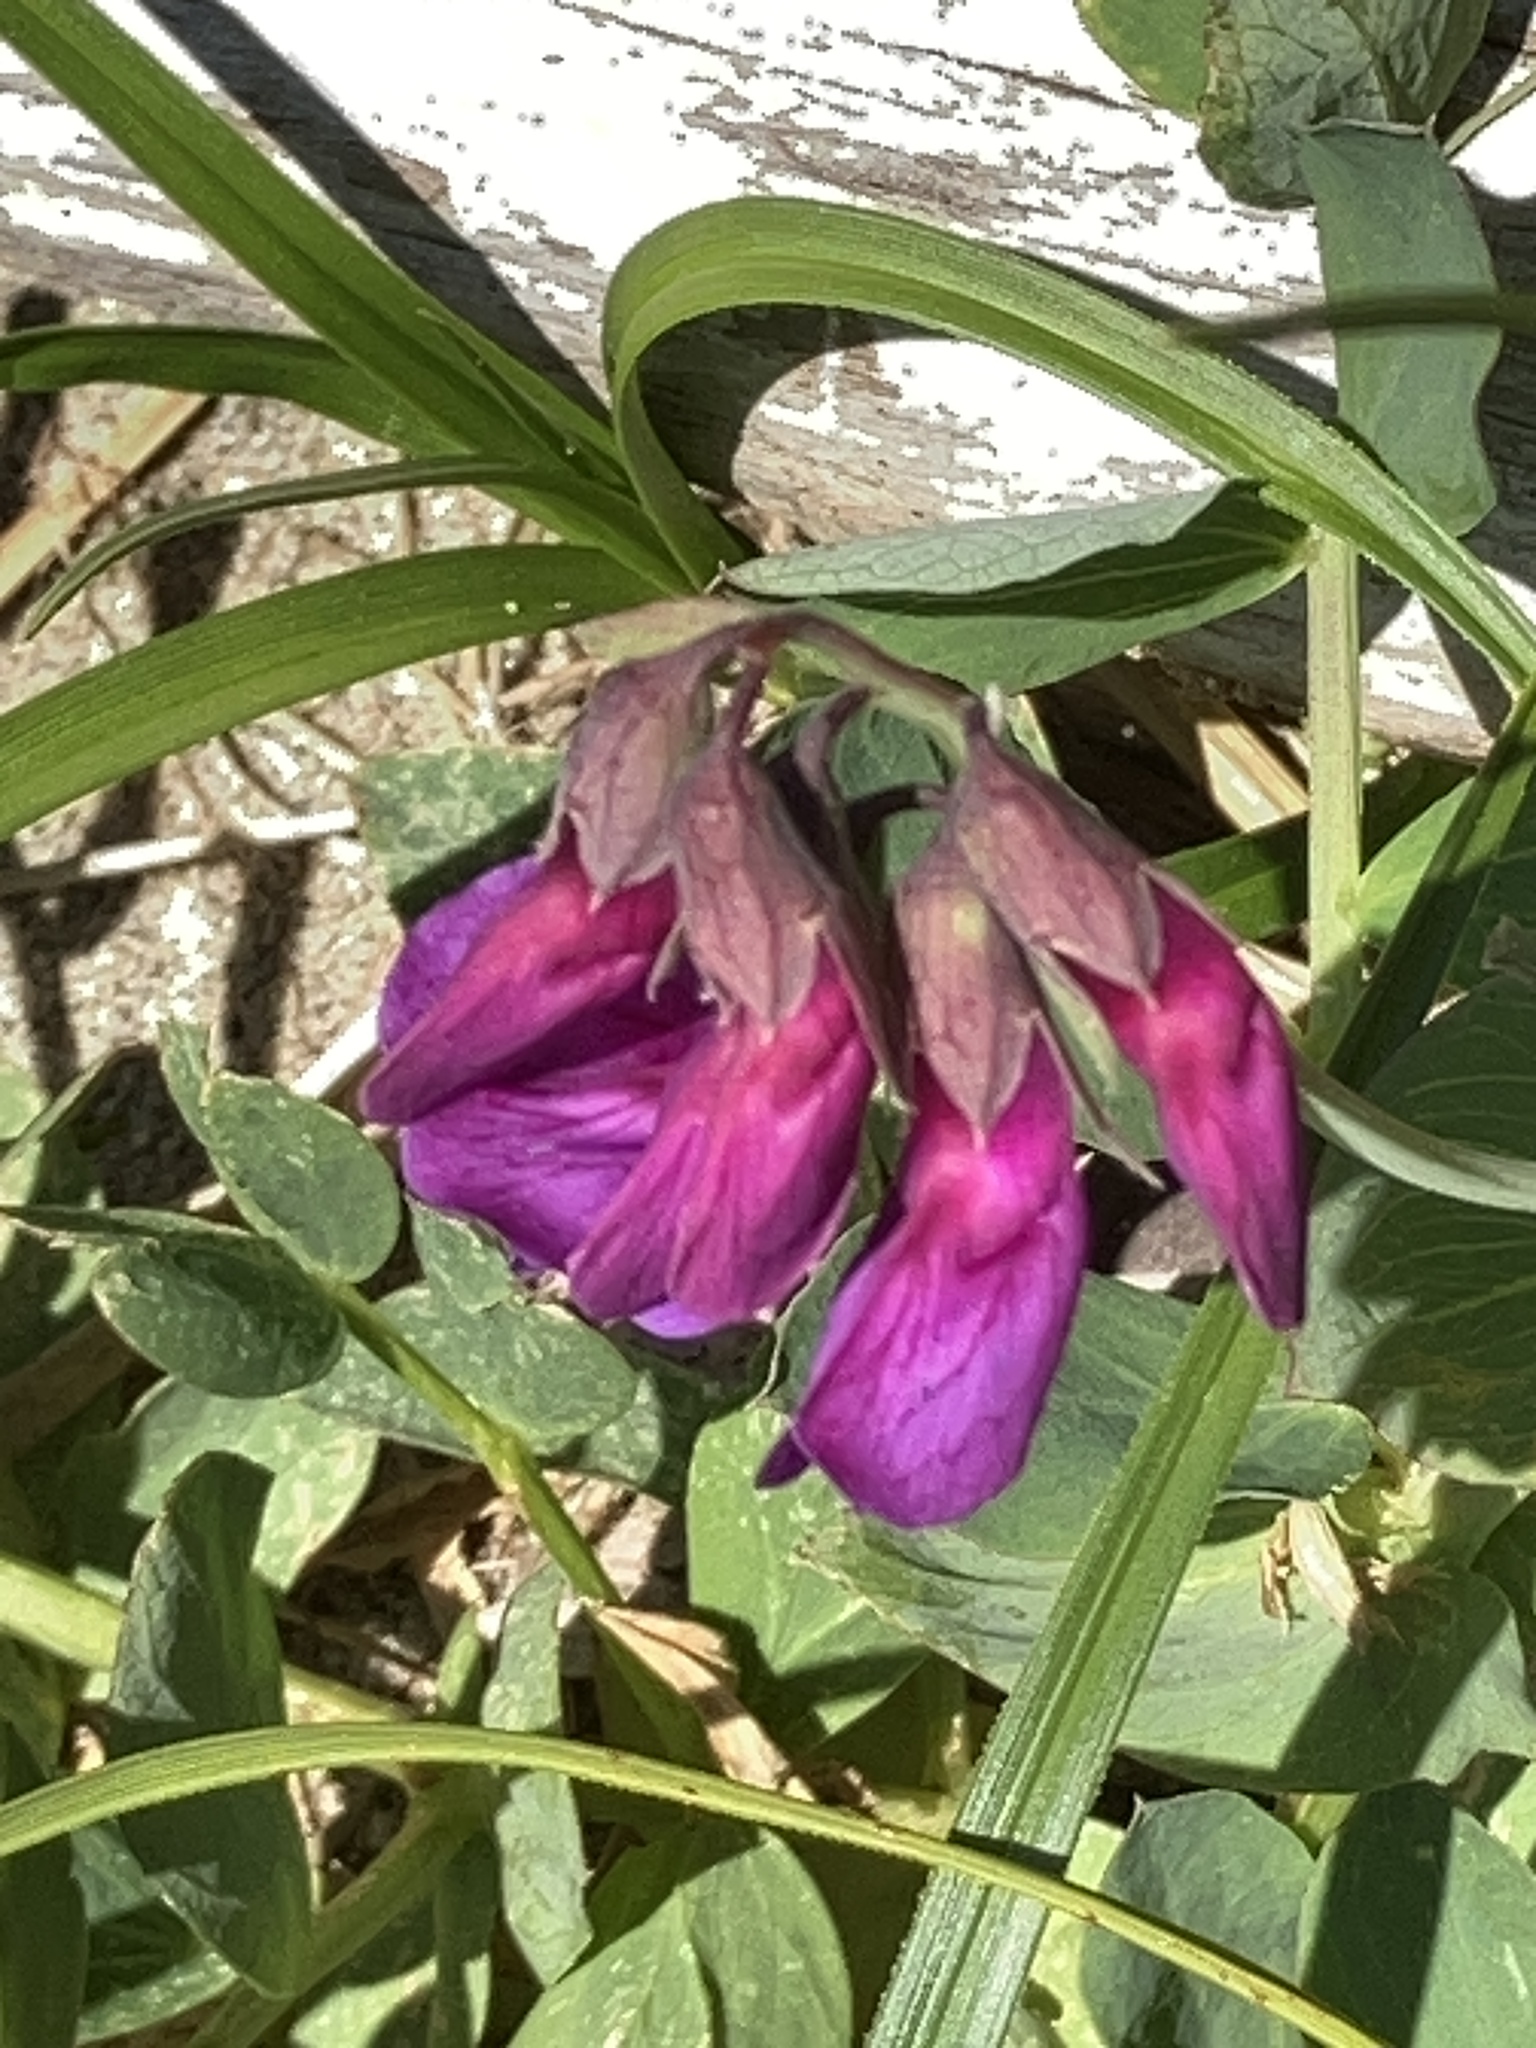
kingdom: Plantae
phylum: Tracheophyta
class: Magnoliopsida
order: Fabales
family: Fabaceae
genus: Lathyrus
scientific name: Lathyrus japonicus
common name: Sea pea
